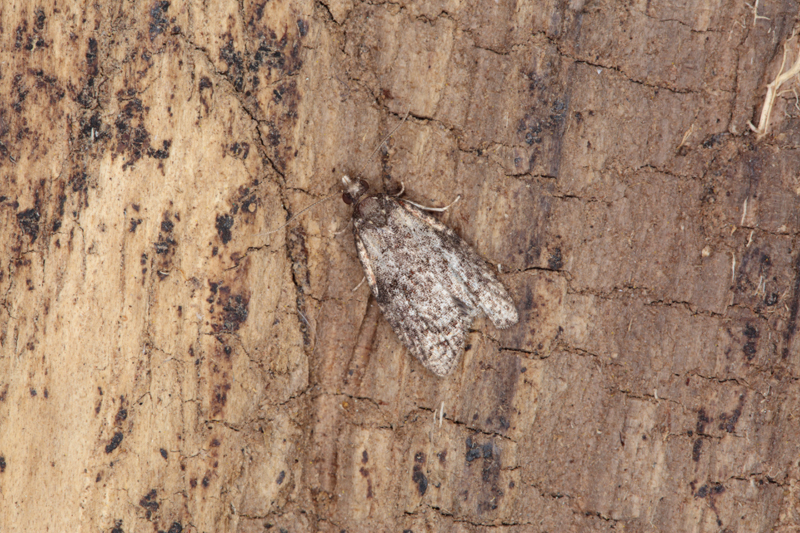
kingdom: Animalia
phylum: Arthropoda
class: Insecta
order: Lepidoptera
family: Tortricidae
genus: Capua
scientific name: Capua intractana
